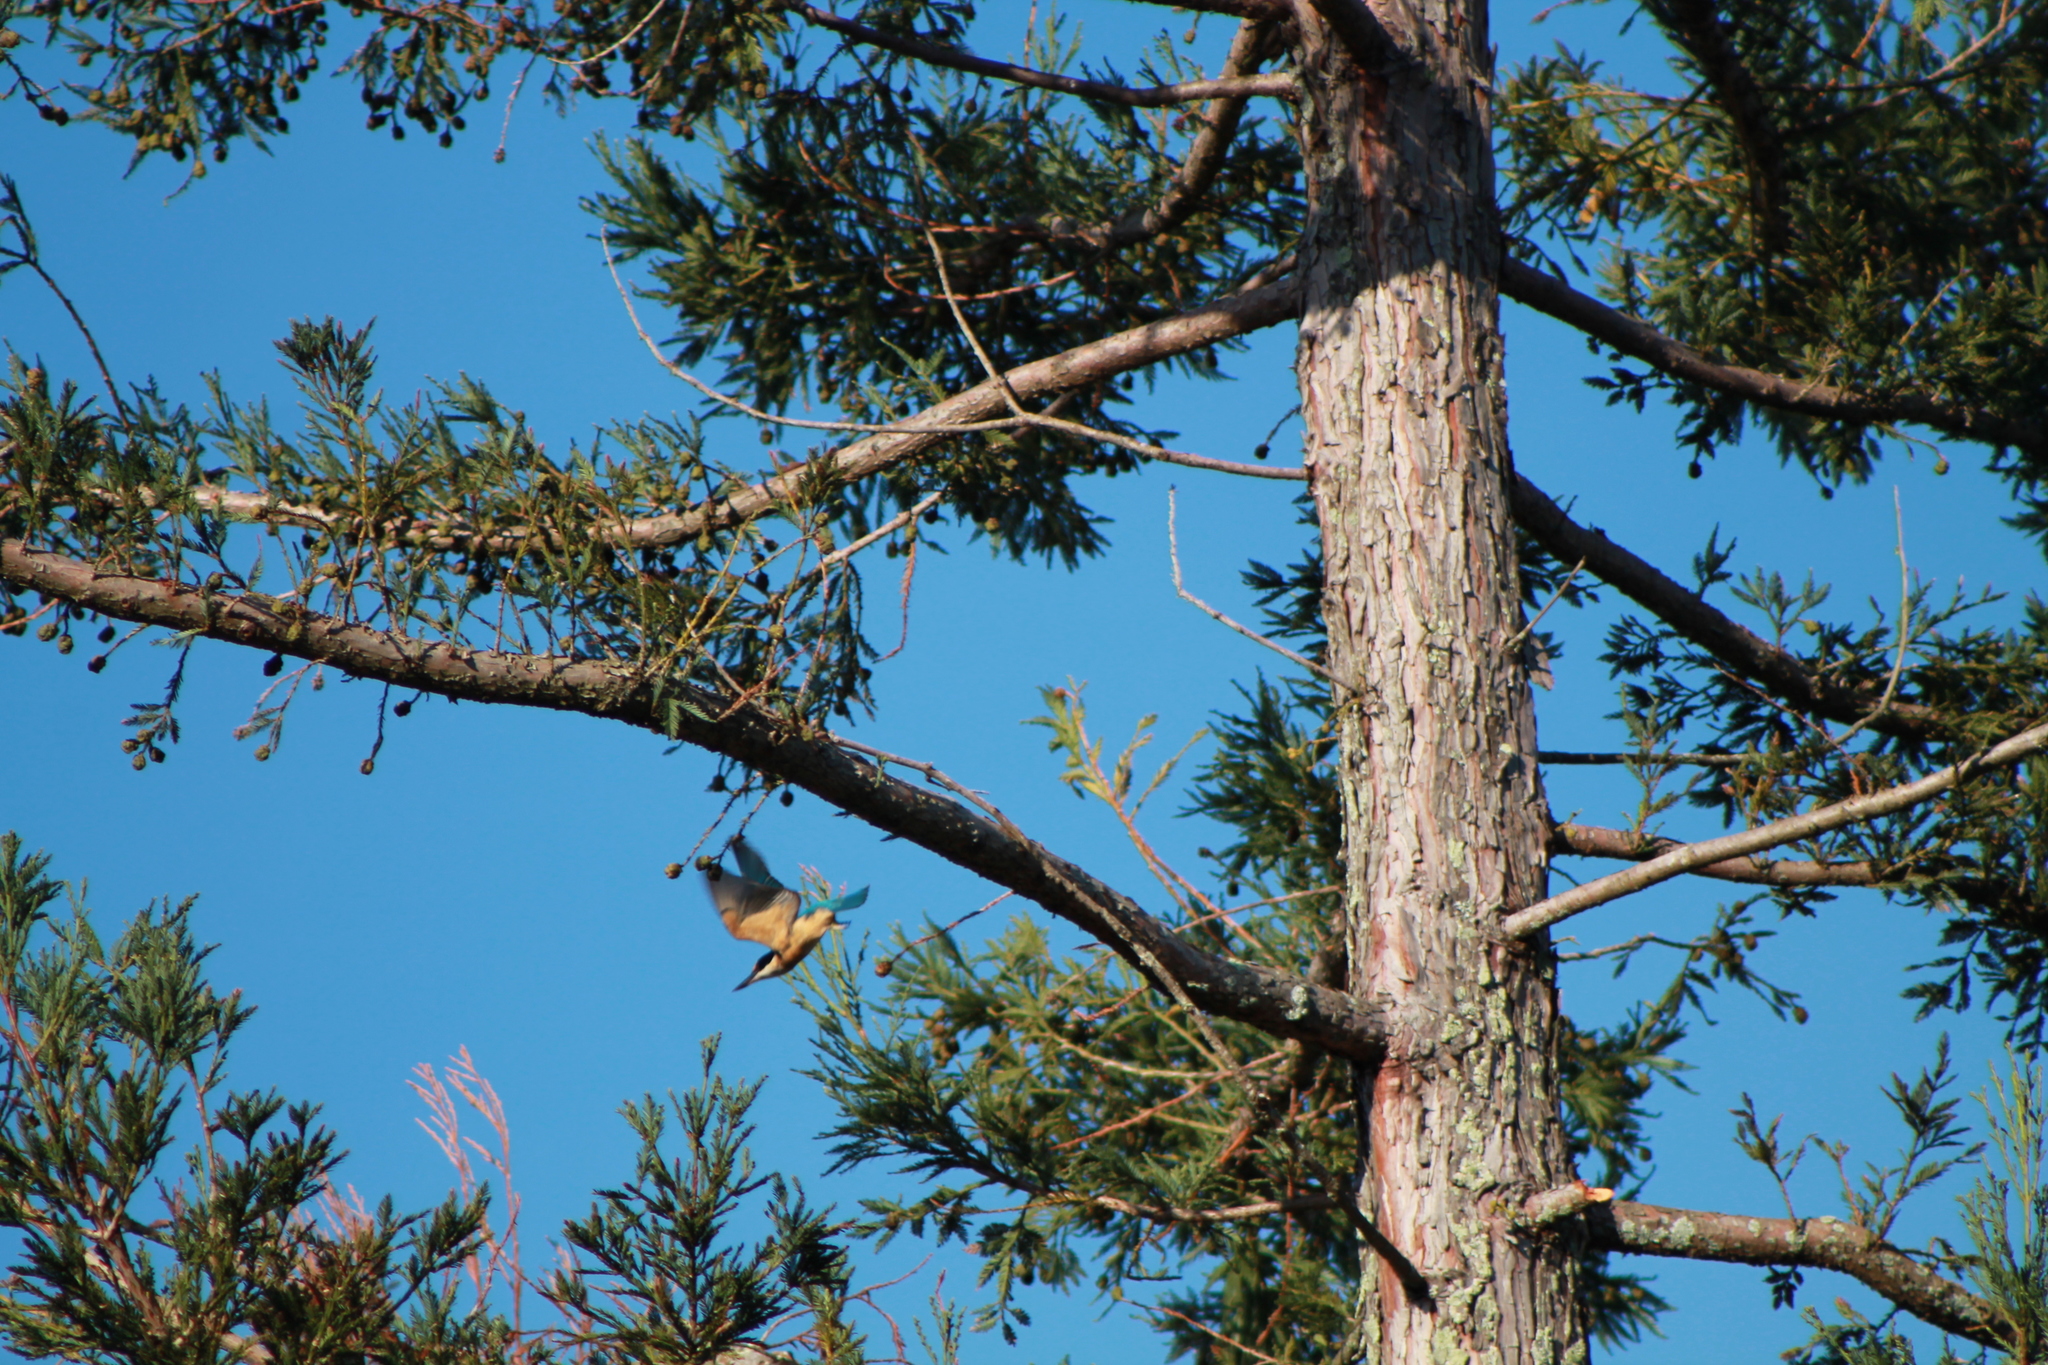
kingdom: Animalia
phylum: Chordata
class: Aves
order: Coraciiformes
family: Alcedinidae
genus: Todiramphus
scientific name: Todiramphus sanctus
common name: Sacred kingfisher
